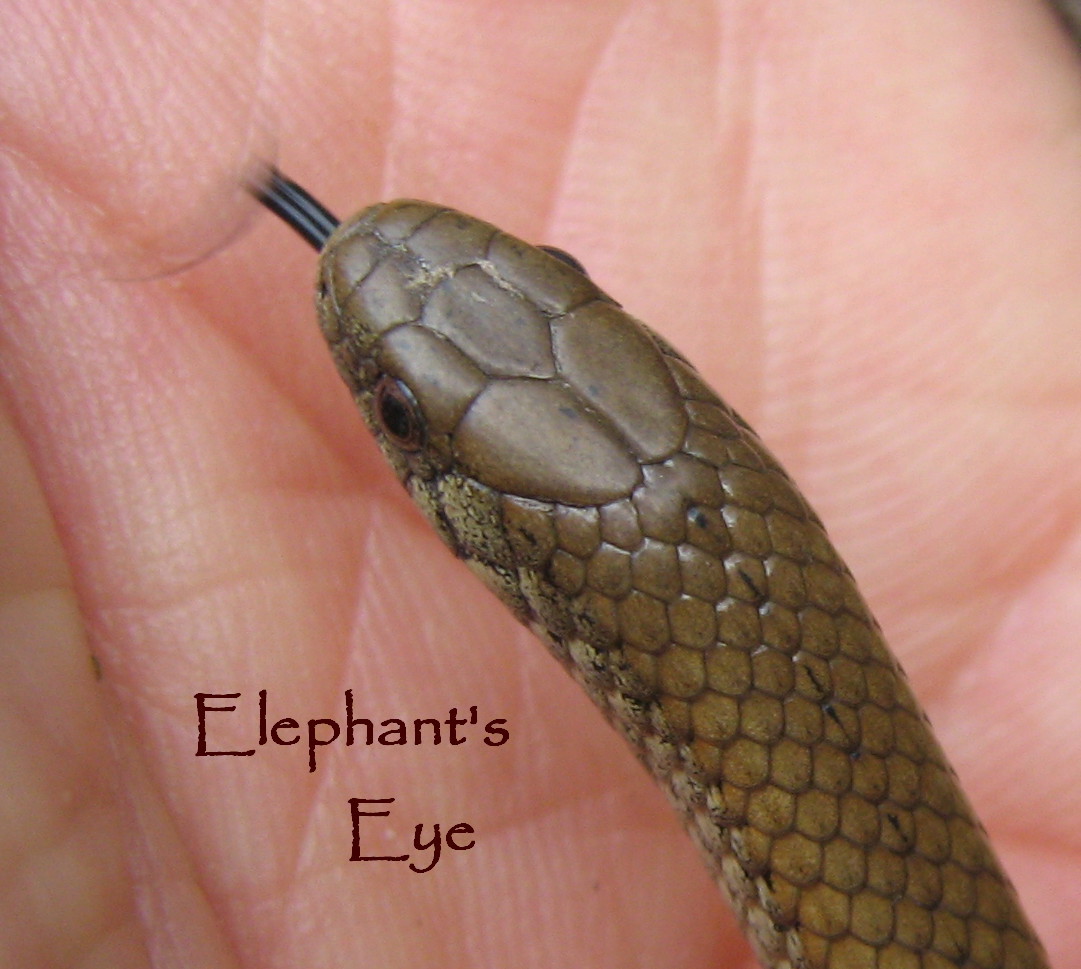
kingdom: Animalia
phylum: Chordata
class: Squamata
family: Pseudoxyrhophiidae
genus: Duberria
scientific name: Duberria lutrix
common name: Common slug eater
